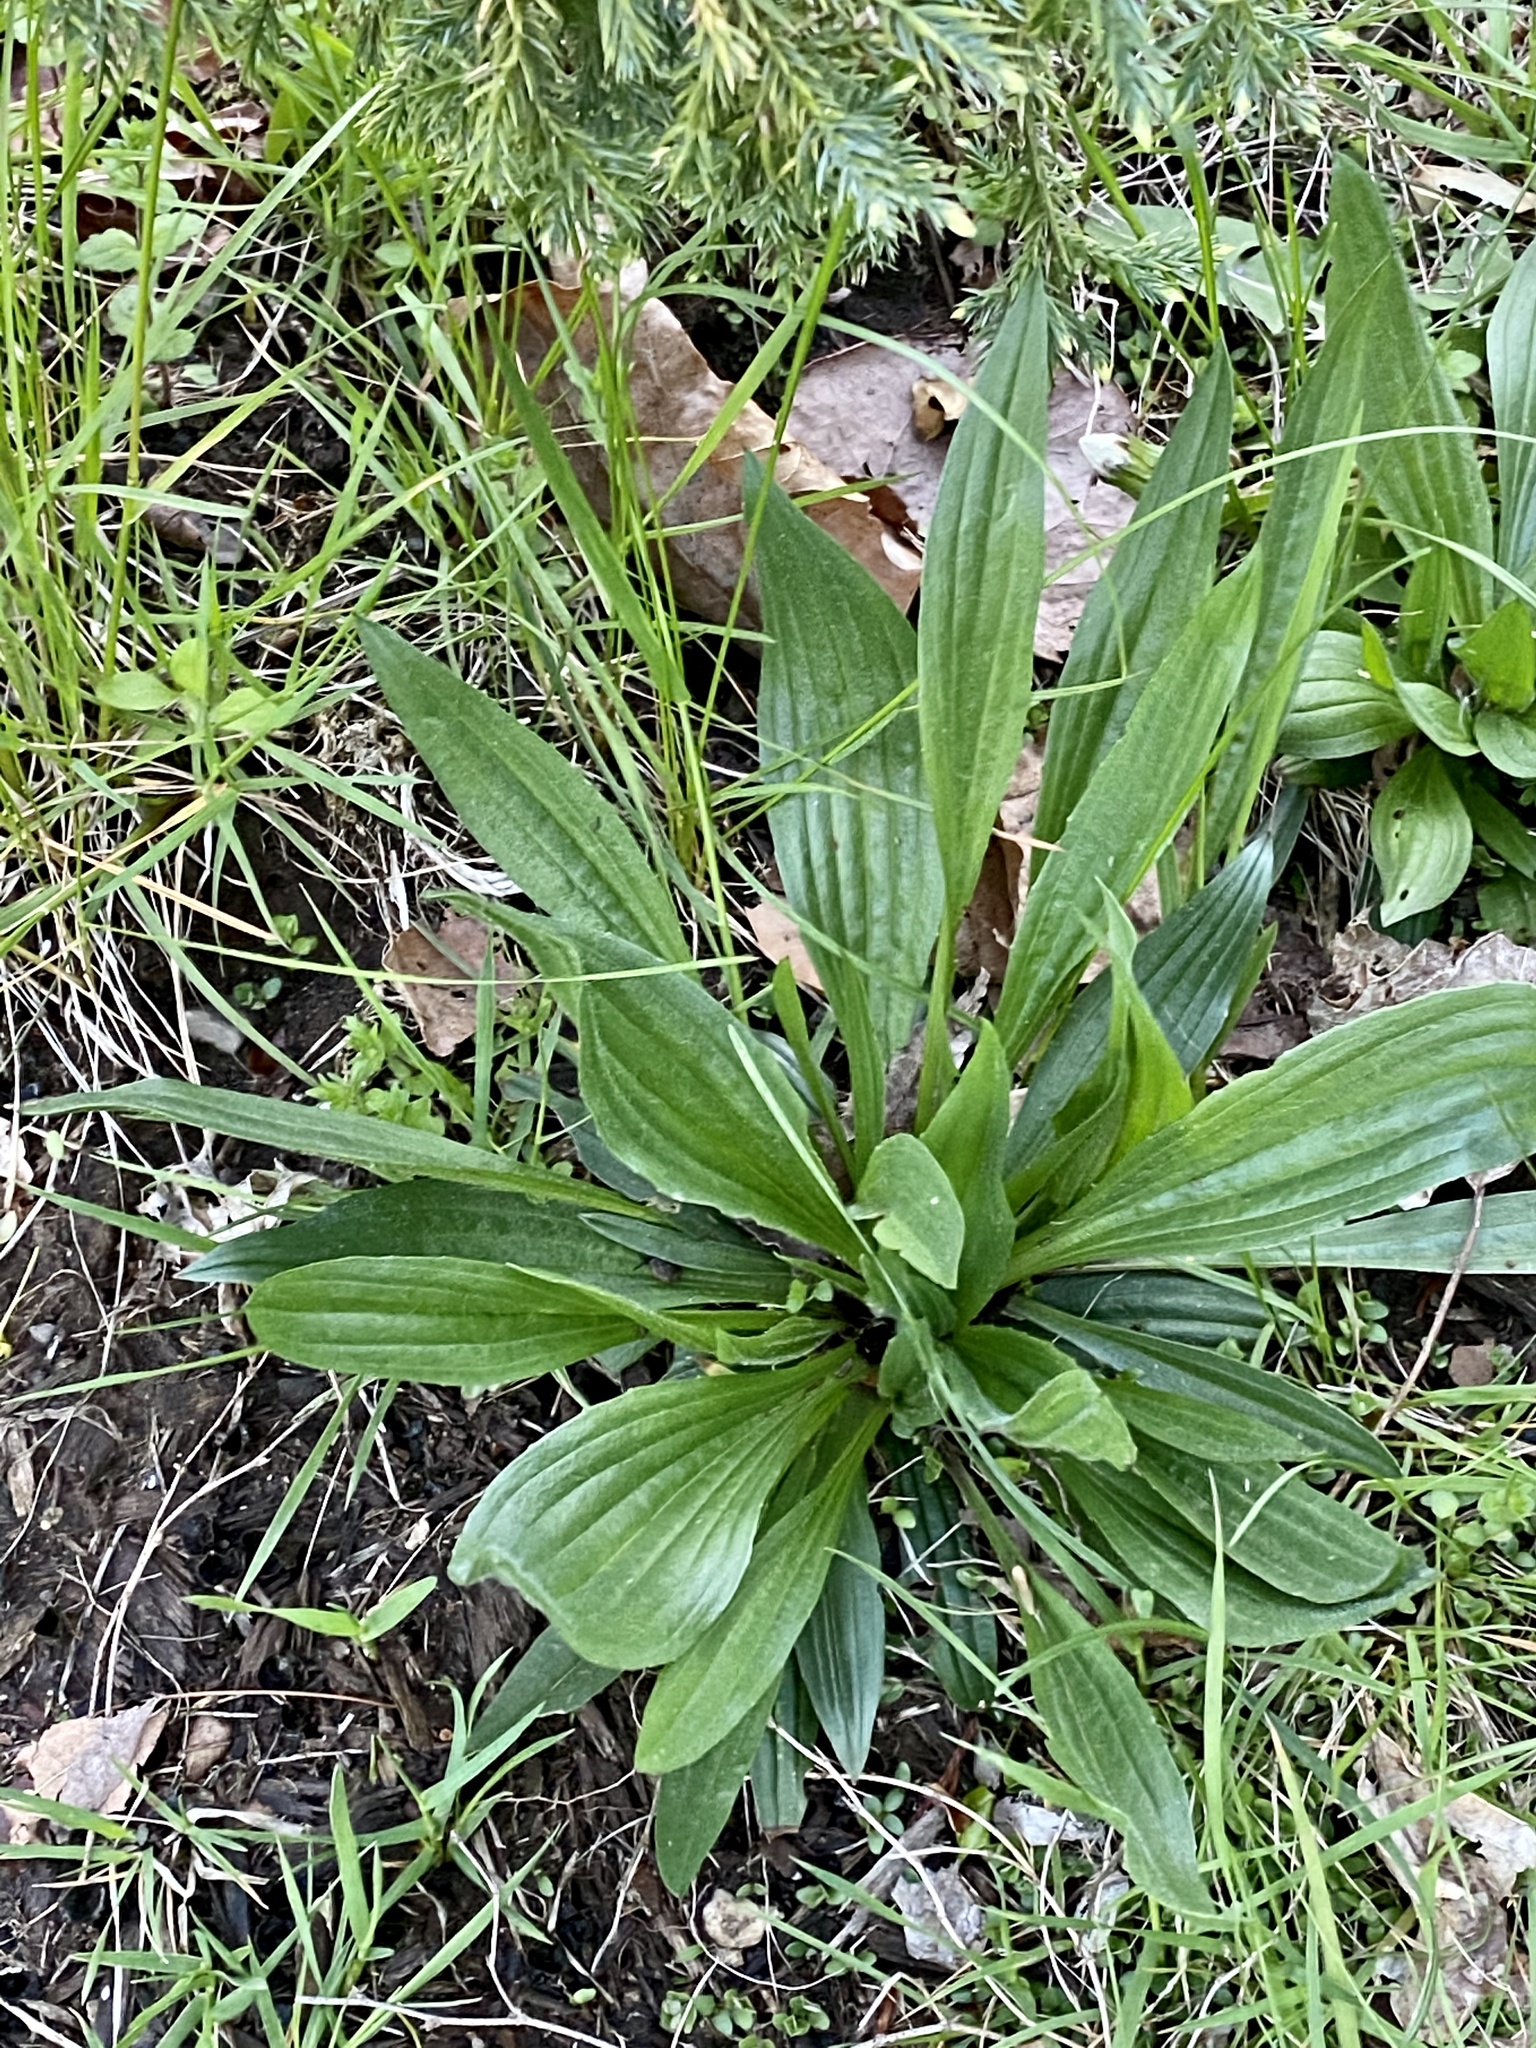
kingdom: Plantae
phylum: Tracheophyta
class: Magnoliopsida
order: Lamiales
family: Plantaginaceae
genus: Plantago
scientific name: Plantago lanceolata
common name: Ribwort plantain
